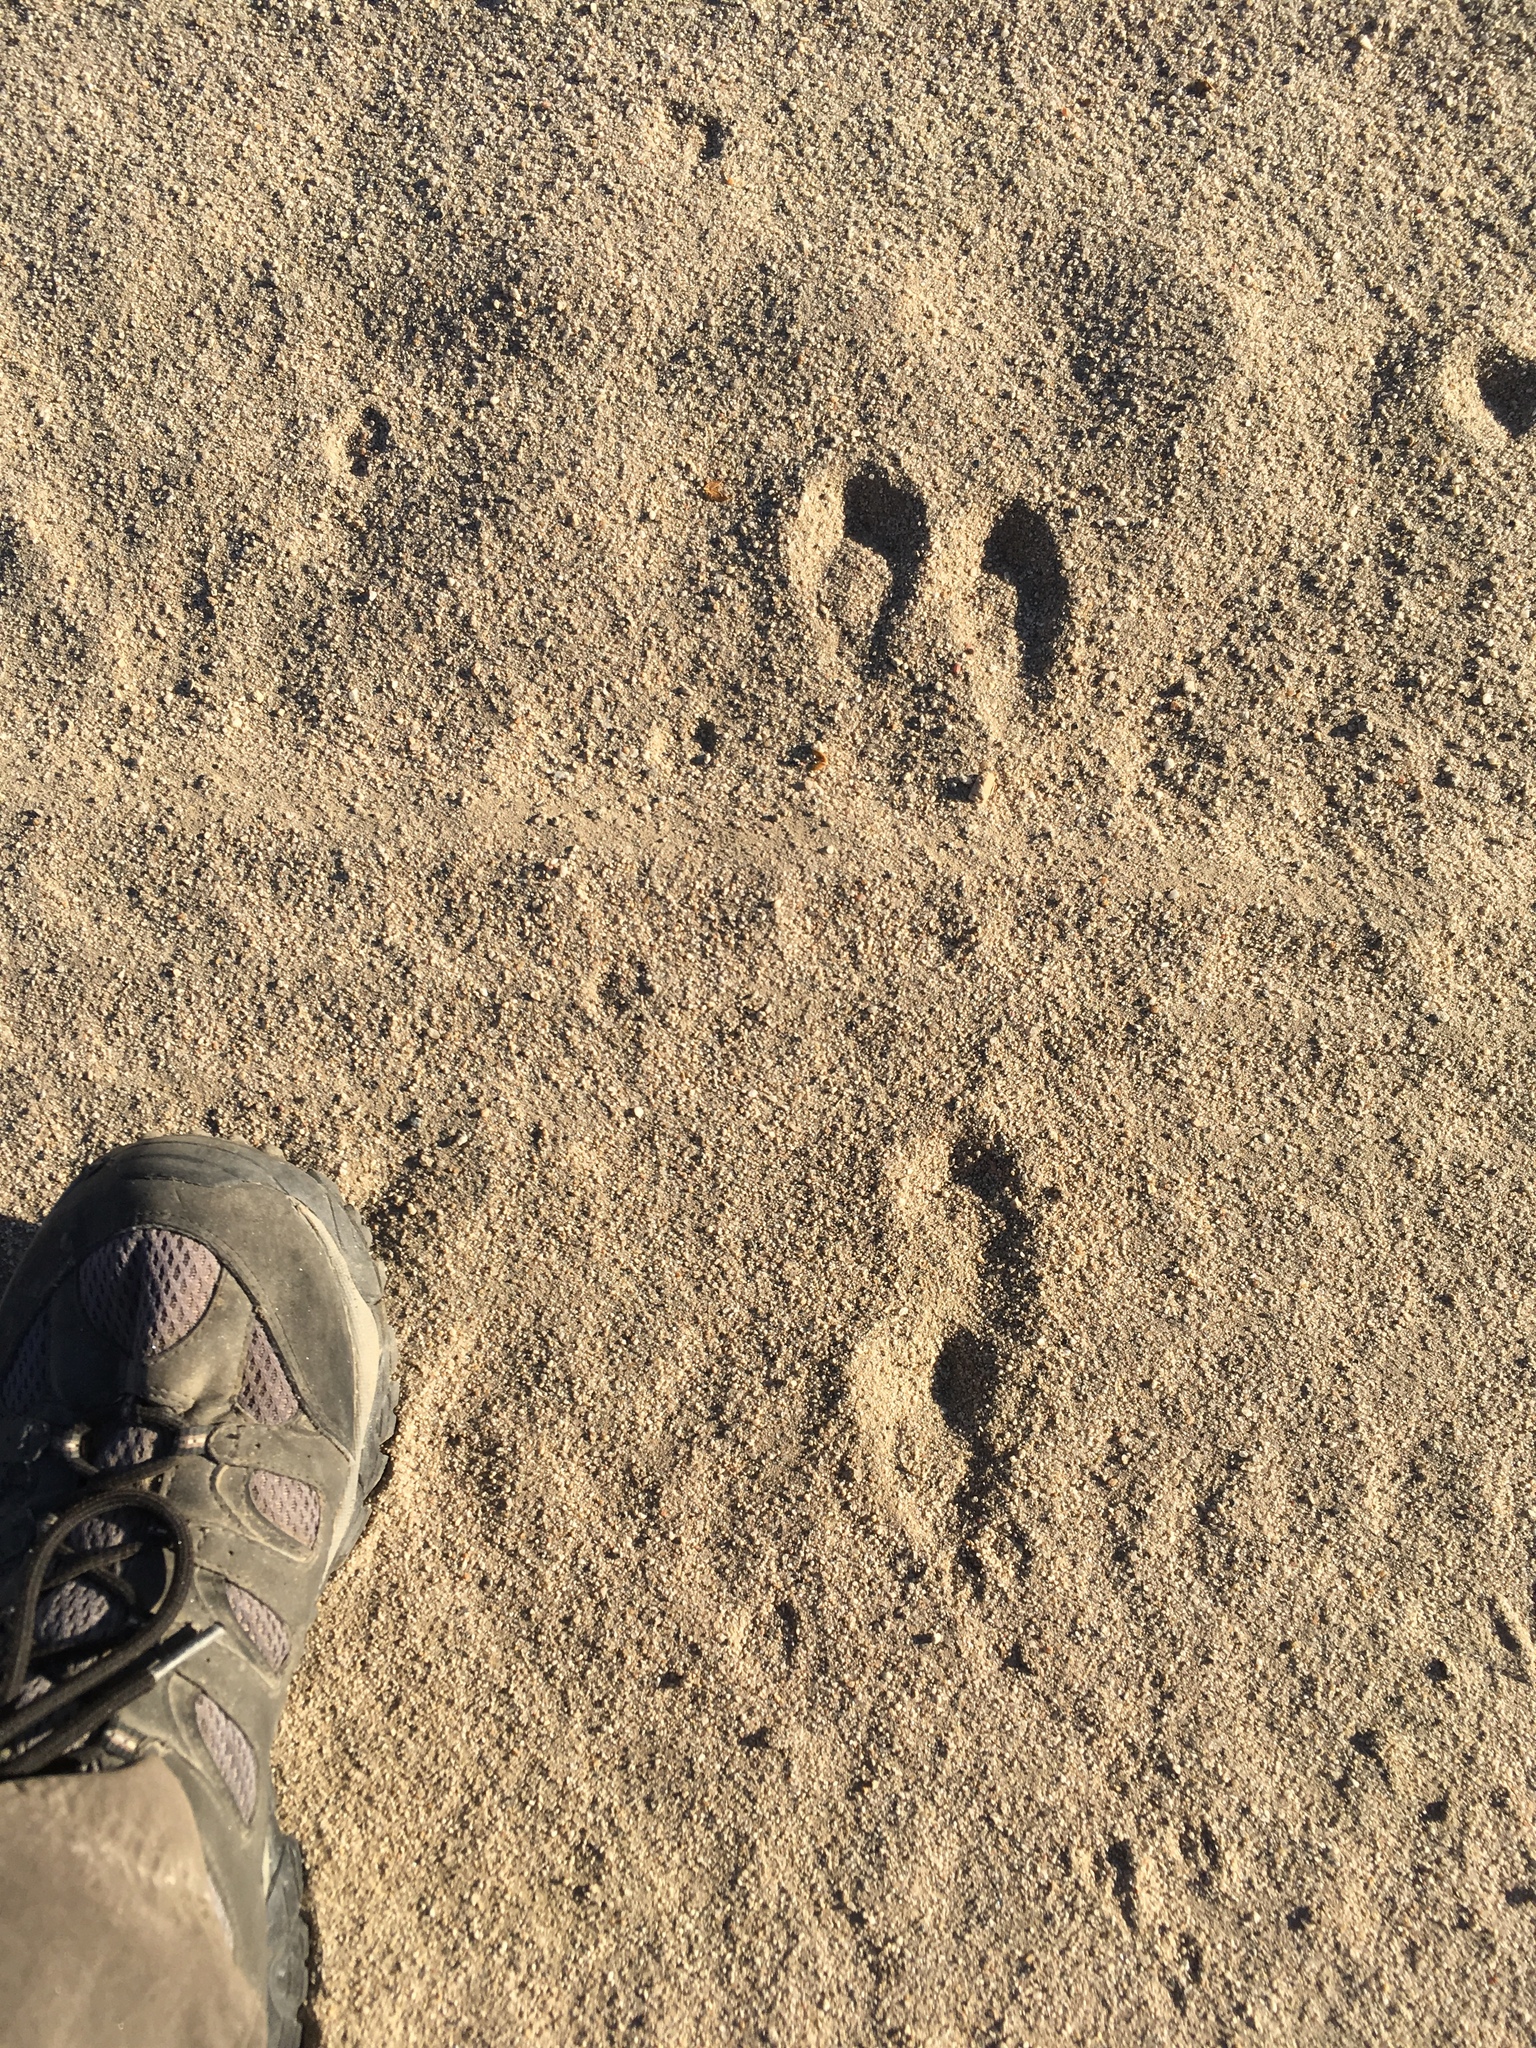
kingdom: Animalia
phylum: Chordata
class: Mammalia
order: Lagomorpha
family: Leporidae
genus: Sylvilagus
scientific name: Sylvilagus audubonii
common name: Desert cottontail
